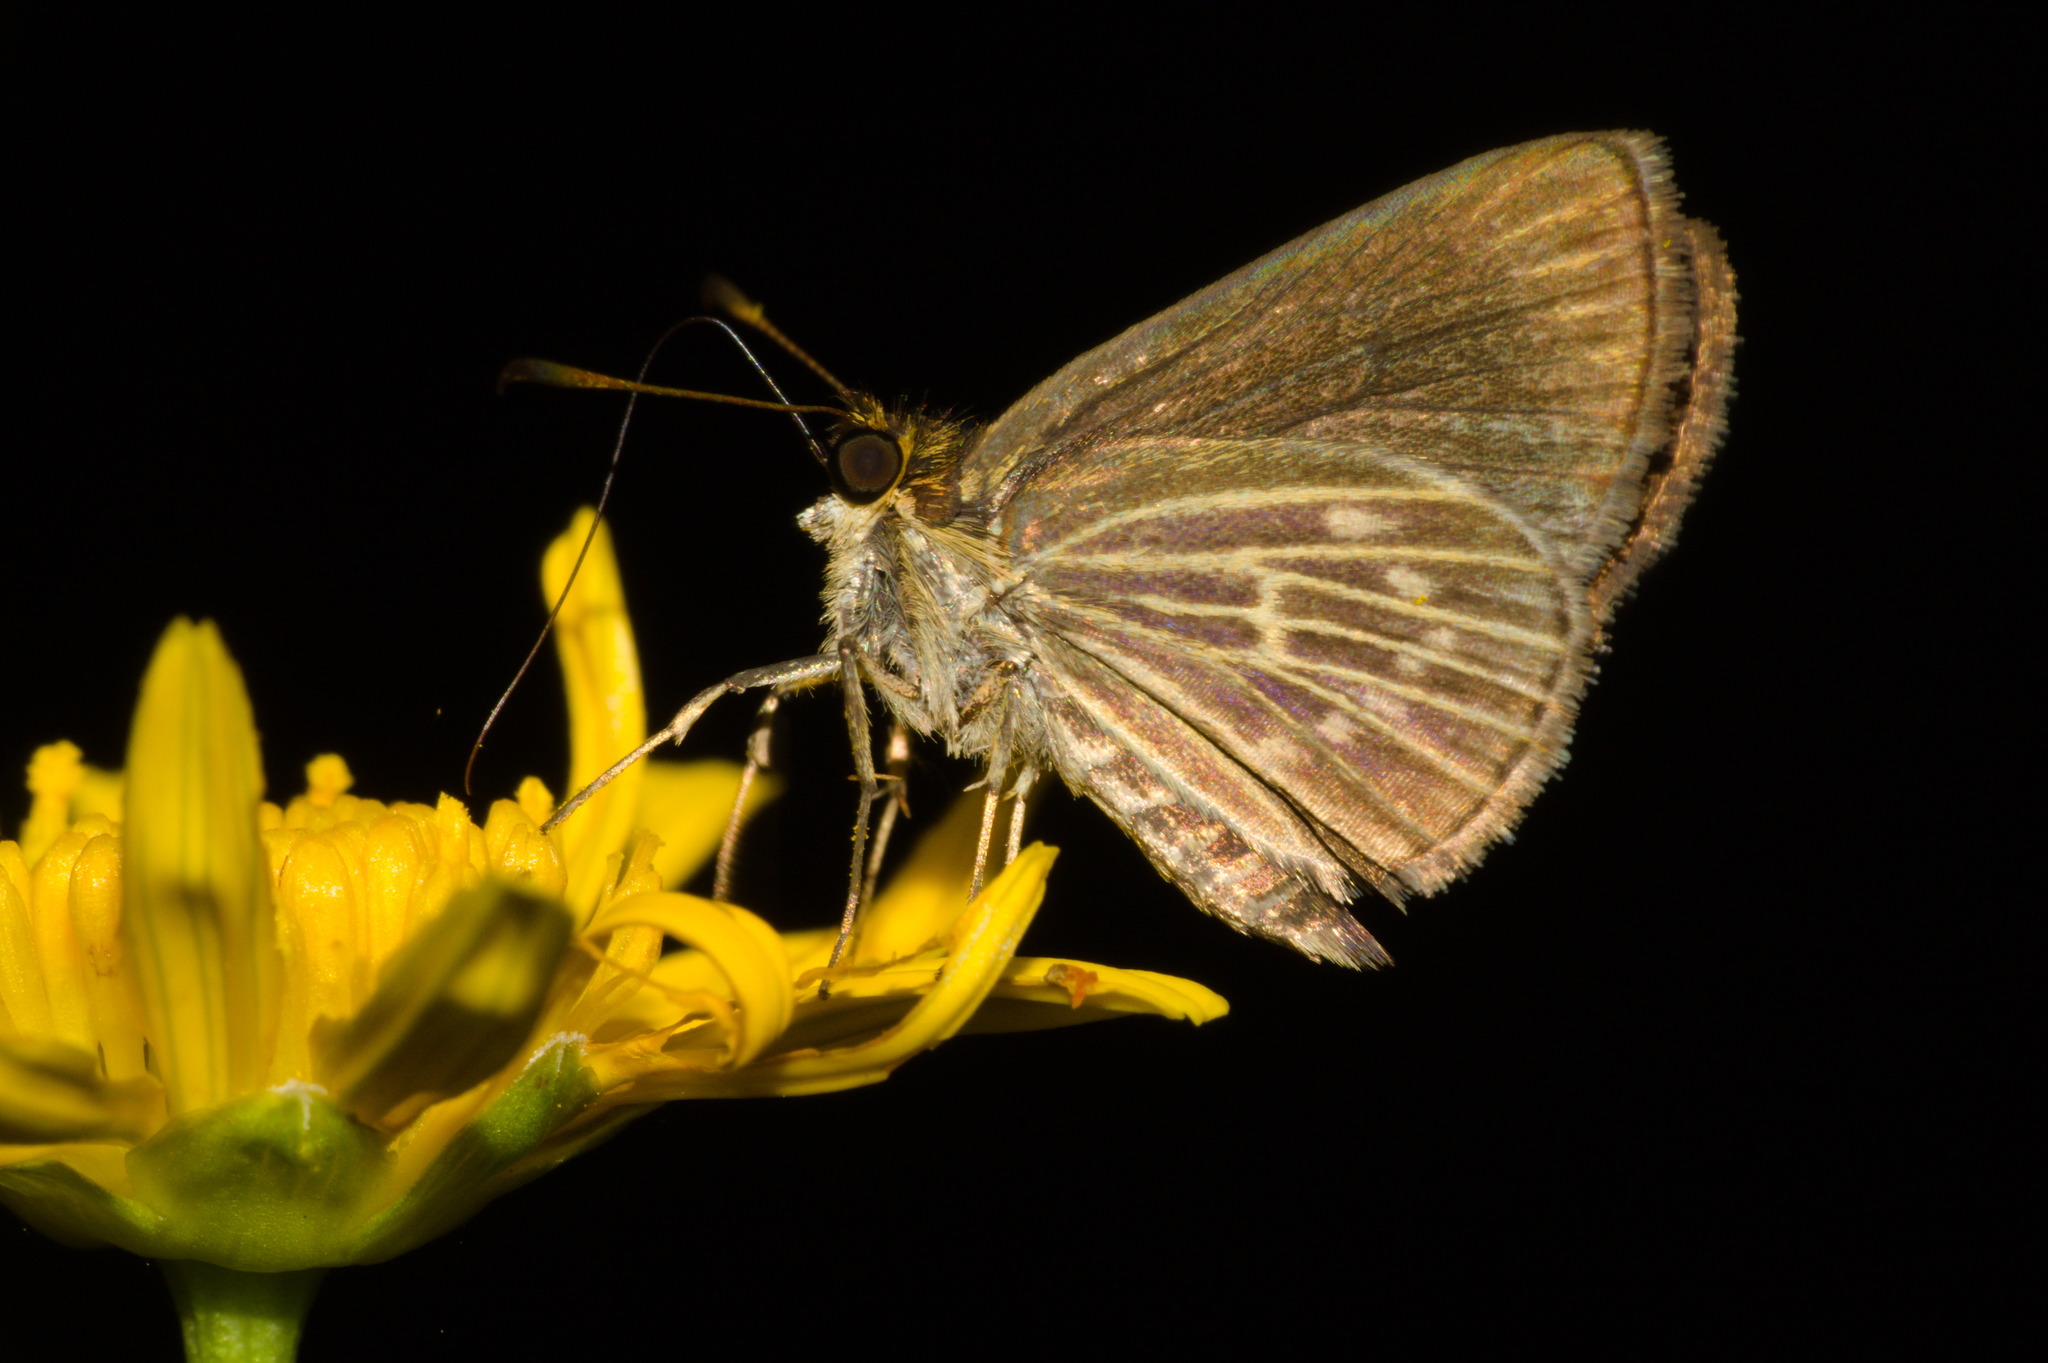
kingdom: Animalia
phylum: Arthropoda
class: Insecta
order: Lepidoptera
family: Hesperiidae
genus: Callimormus
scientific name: Callimormus interpunctata
